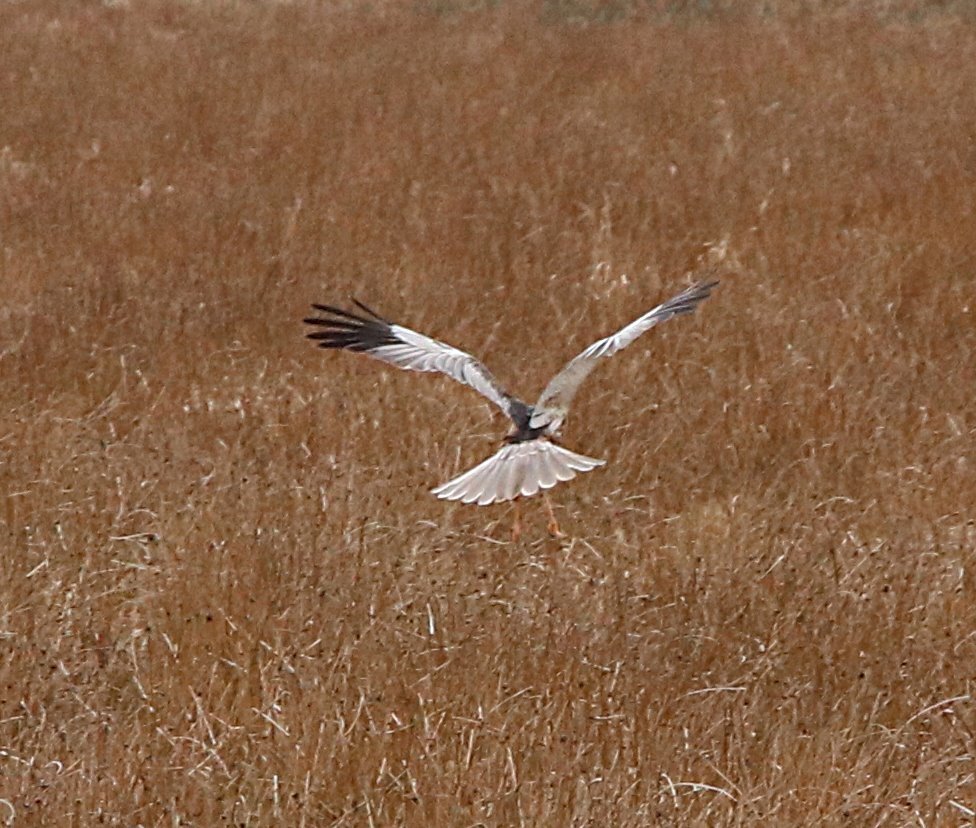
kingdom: Animalia
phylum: Chordata
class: Aves
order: Accipitriformes
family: Accipitridae
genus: Circus
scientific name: Circus aeruginosus
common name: Western marsh harrier
